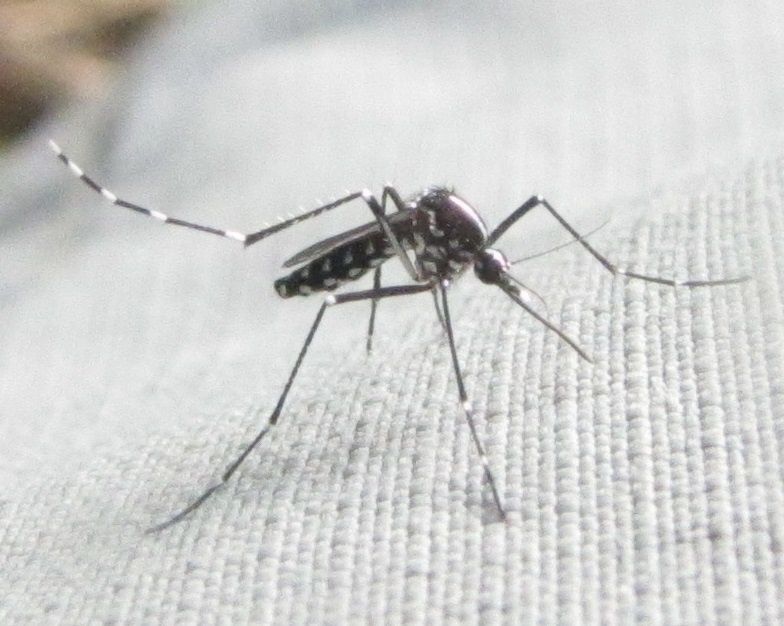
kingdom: Animalia
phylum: Arthropoda
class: Insecta
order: Diptera
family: Culicidae
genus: Aedes
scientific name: Aedes albopictus
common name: Tiger mosquito
